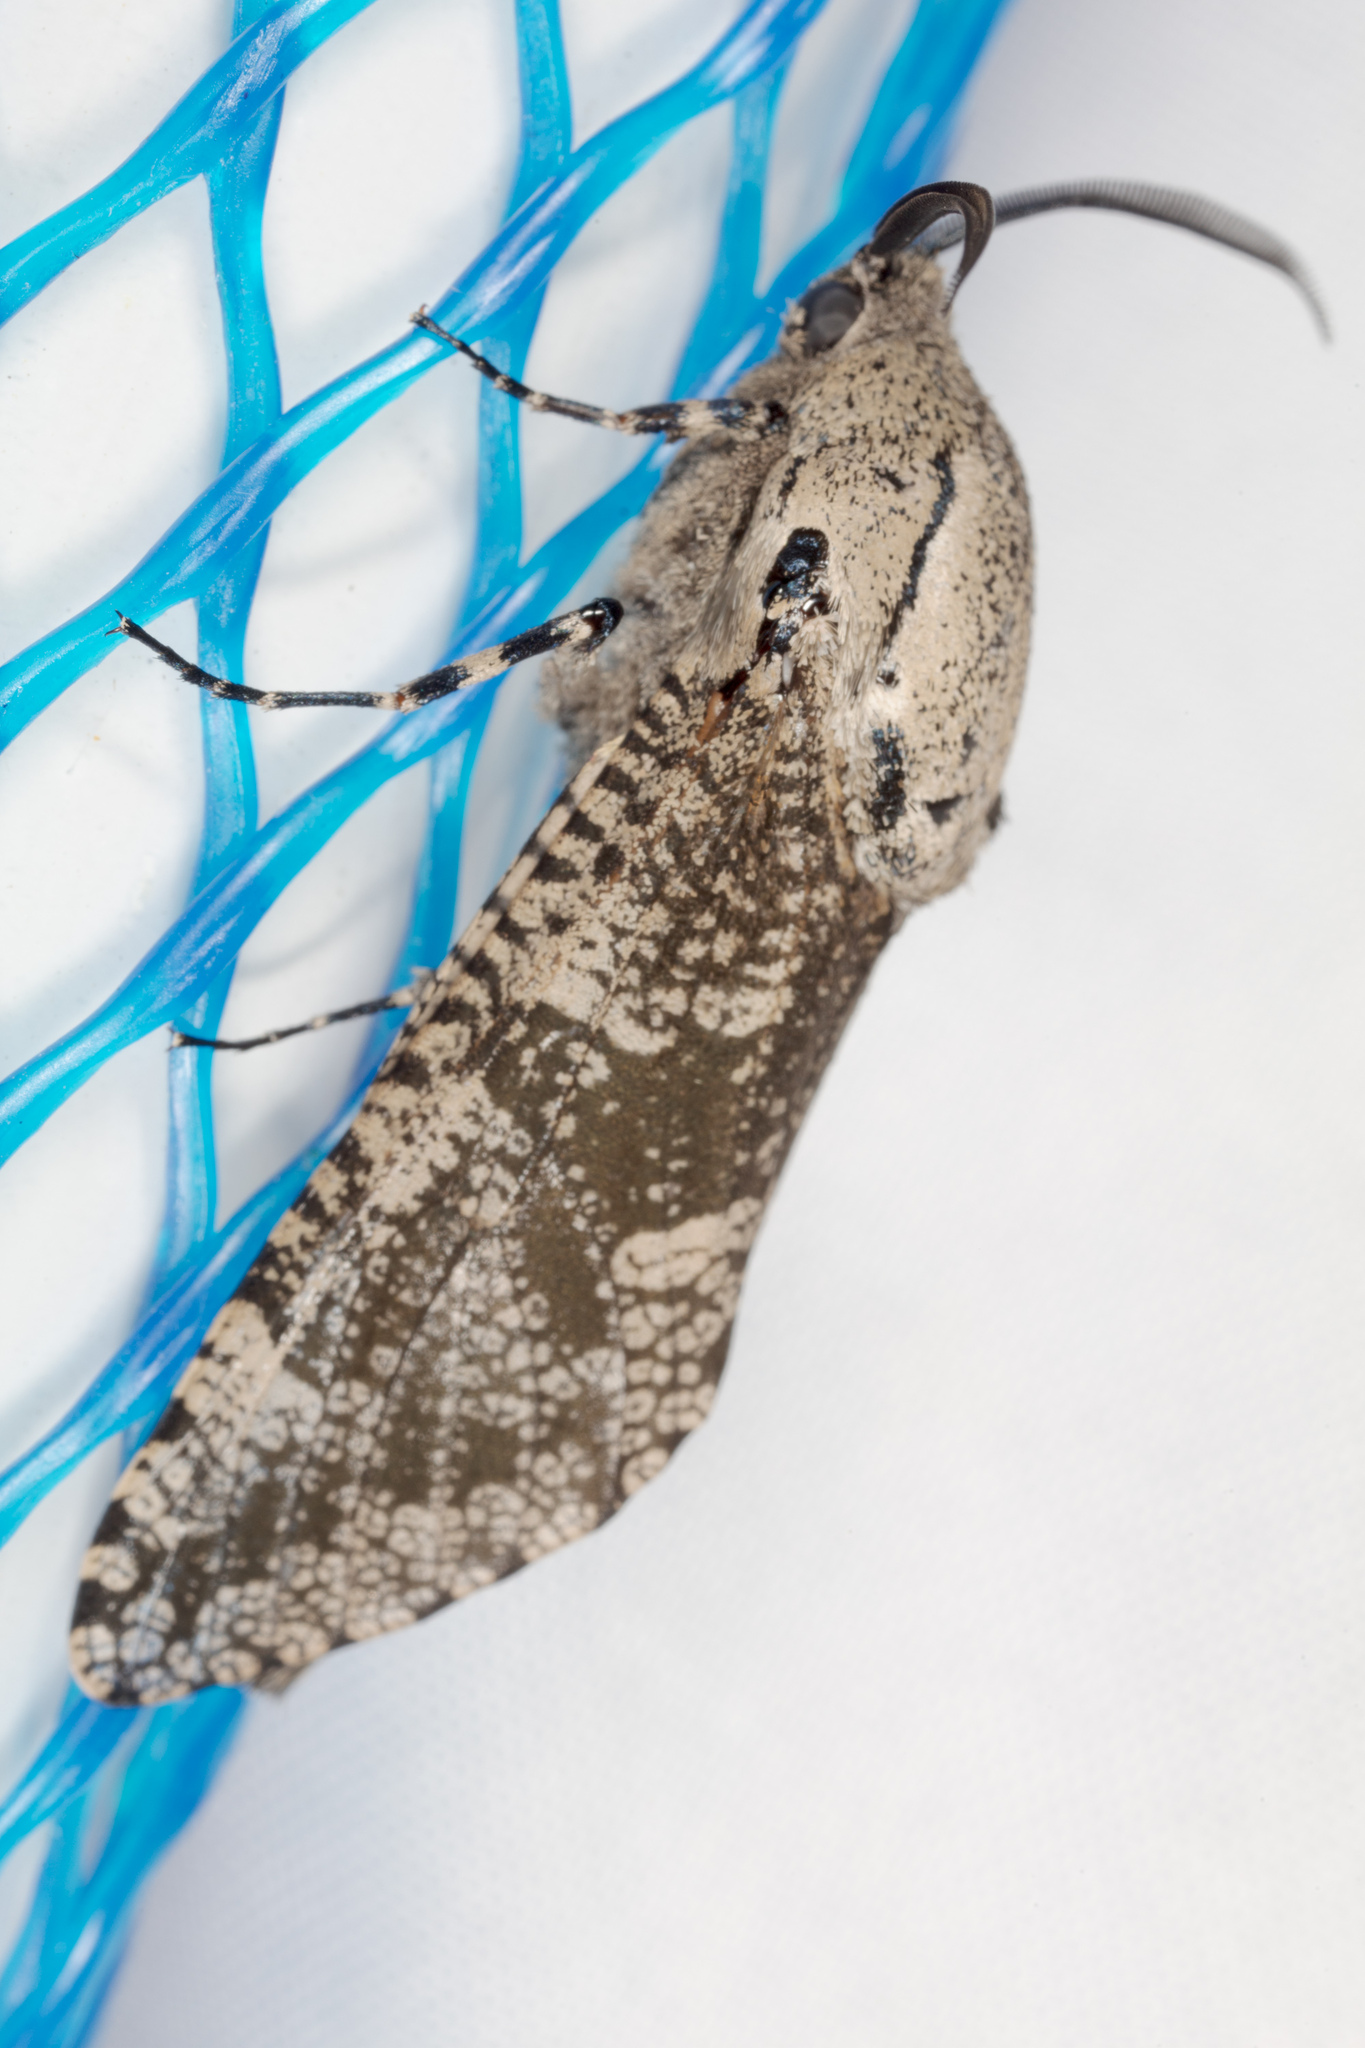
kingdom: Animalia
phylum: Arthropoda
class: Insecta
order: Lepidoptera
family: Cossidae
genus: Prionoxystus
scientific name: Prionoxystus robiniae
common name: Carpenterworm
